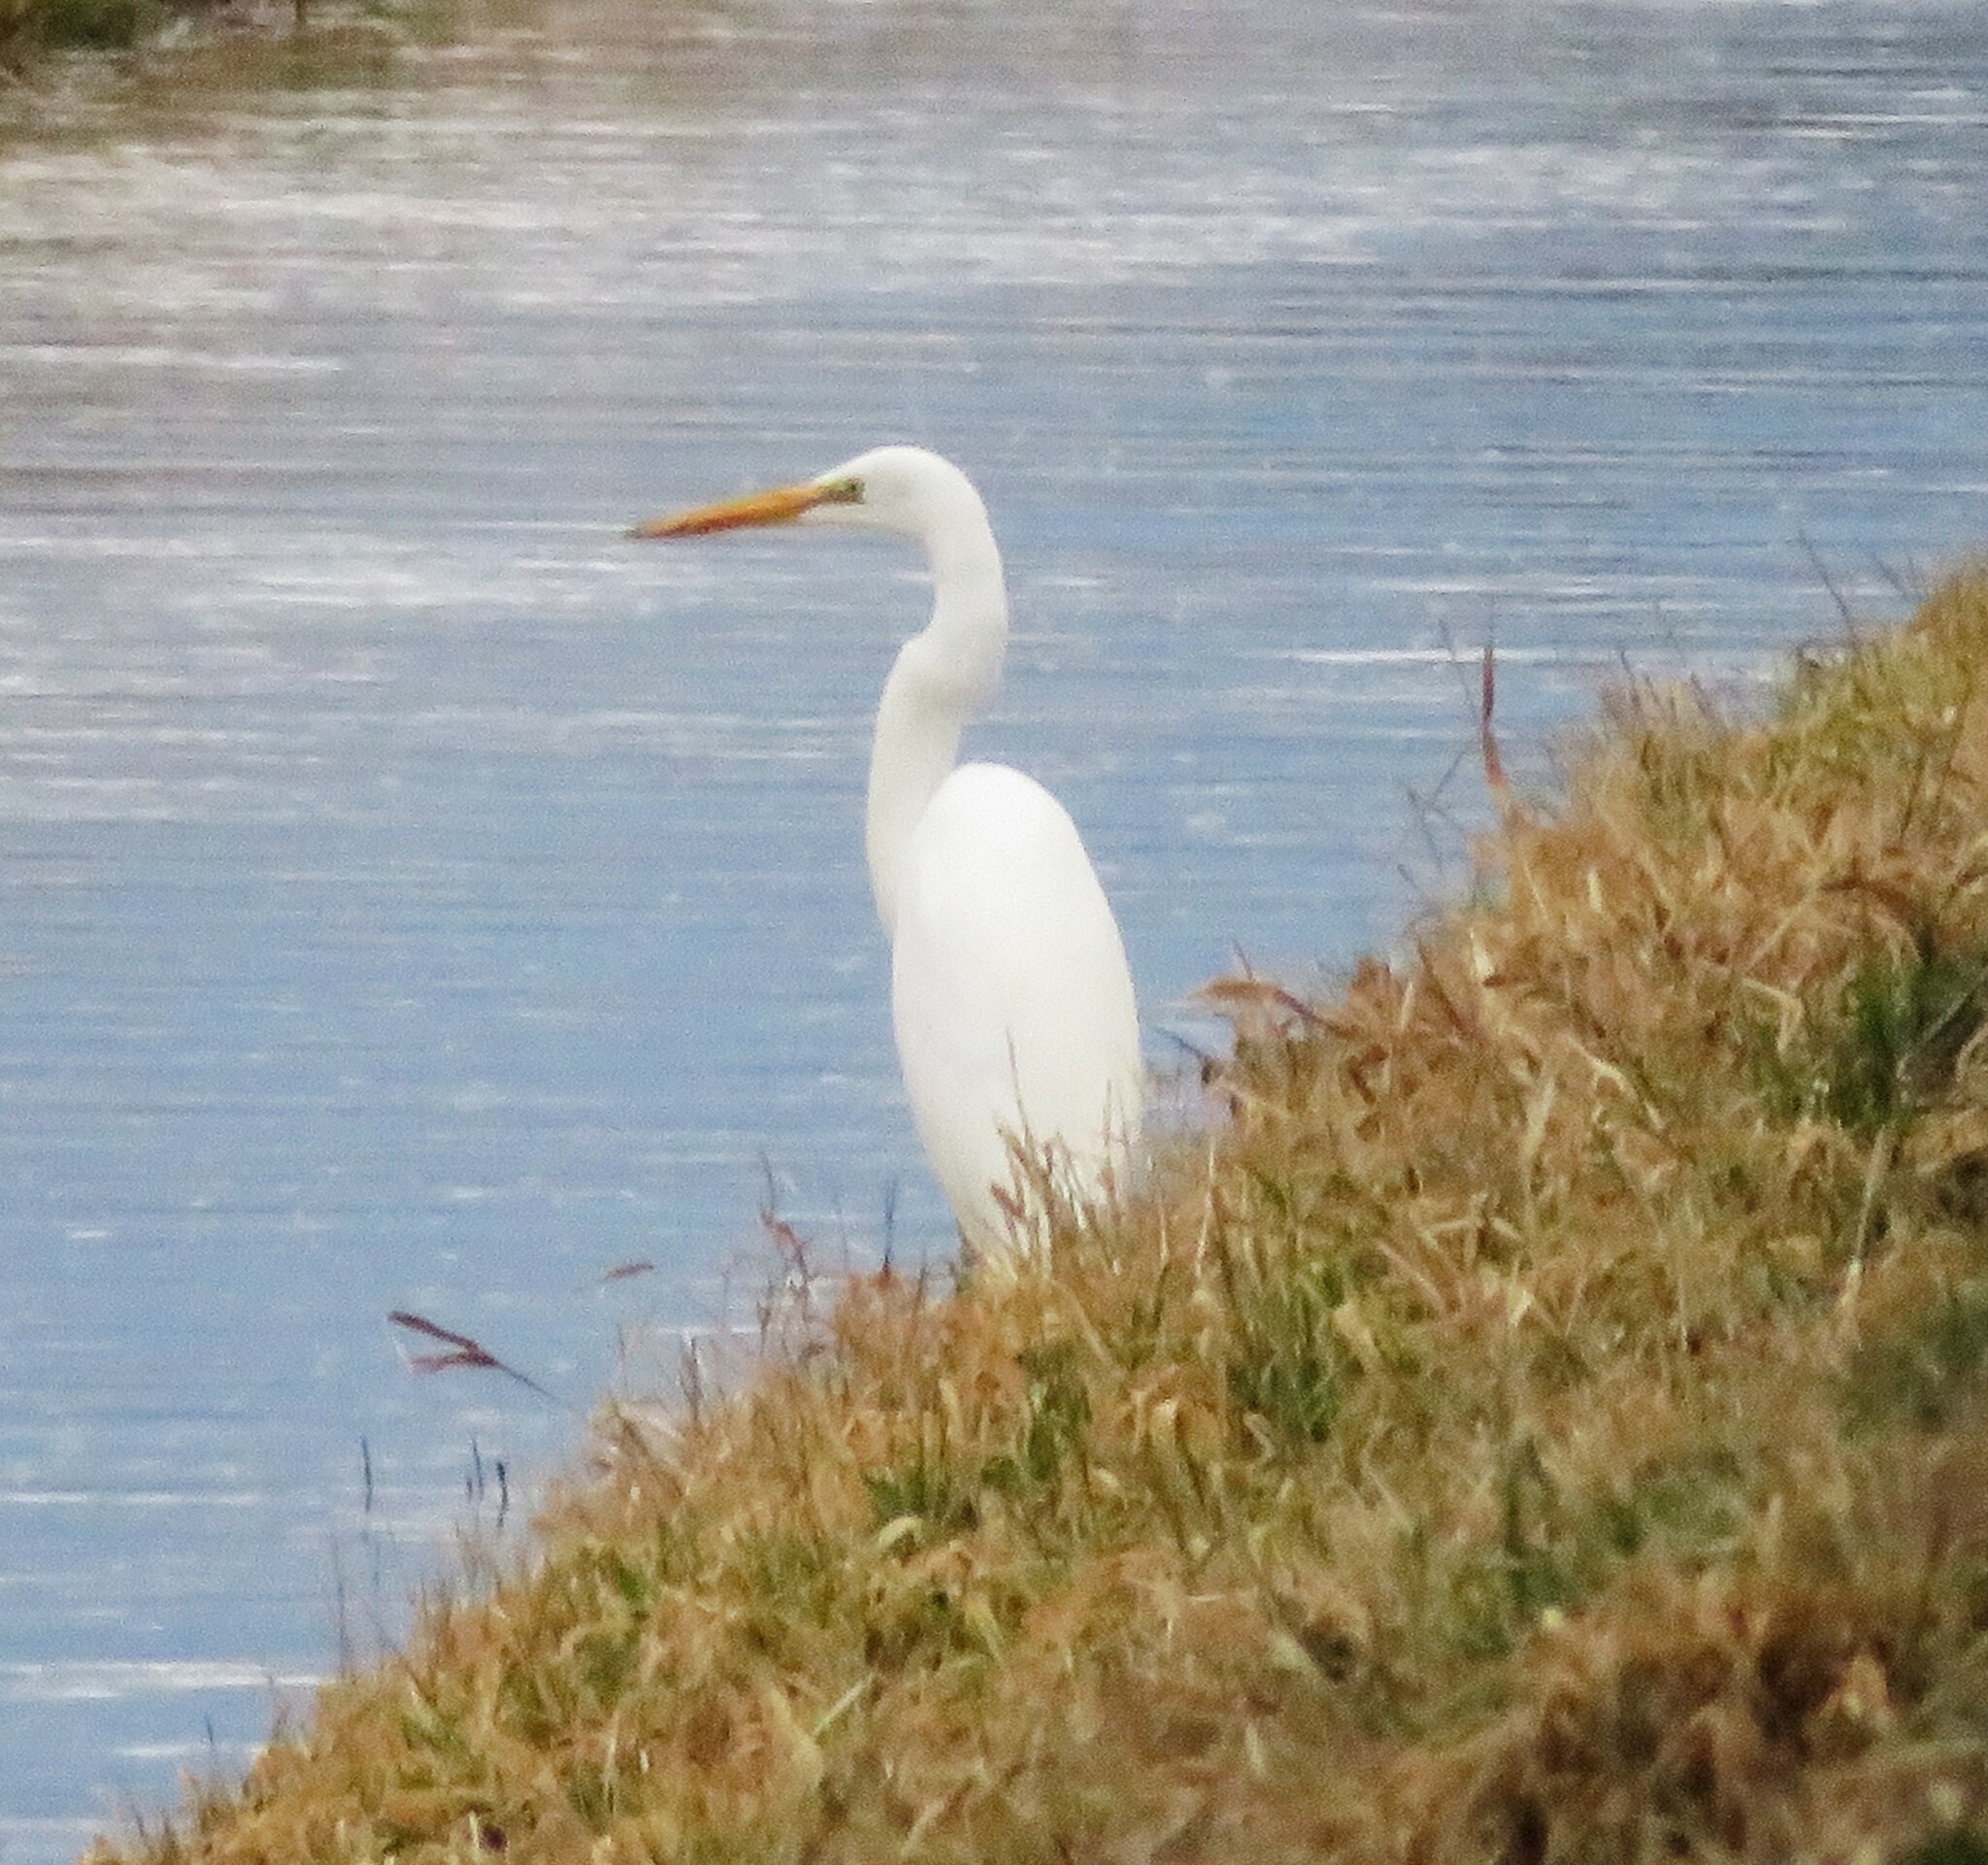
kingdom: Animalia
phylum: Chordata
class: Aves
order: Pelecaniformes
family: Ardeidae
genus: Ardea
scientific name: Ardea alba
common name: Great egret
